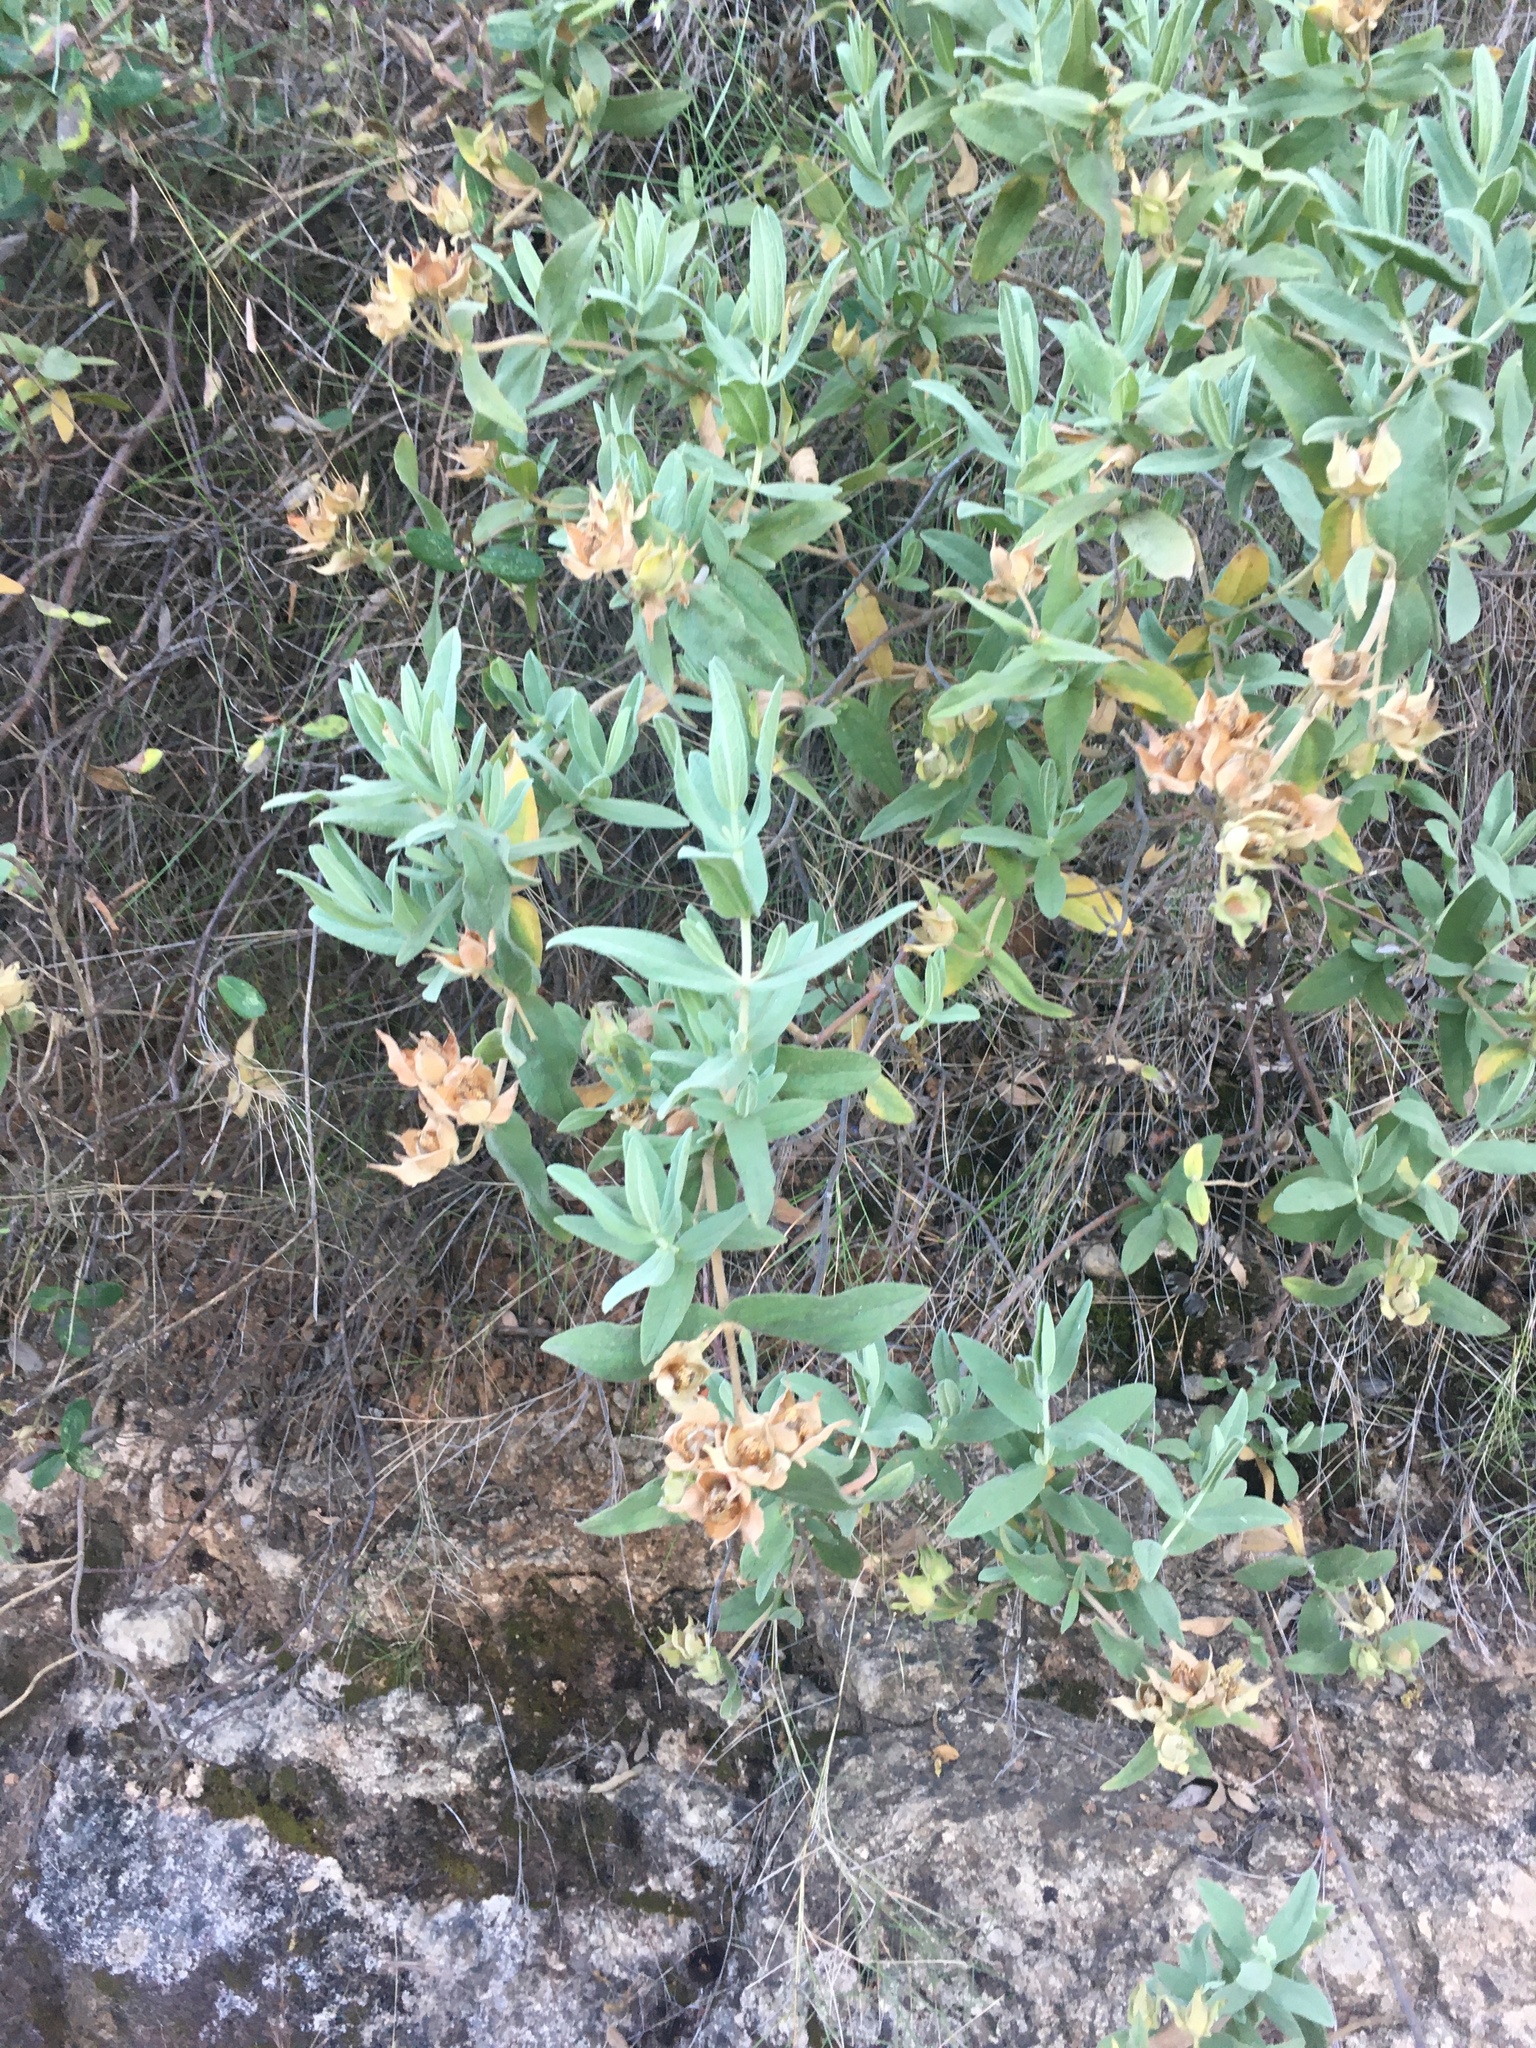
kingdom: Plantae
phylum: Tracheophyta
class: Magnoliopsida
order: Malvales
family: Cistaceae
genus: Cistus
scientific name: Cistus albidus
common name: White-leaf rock-rose
